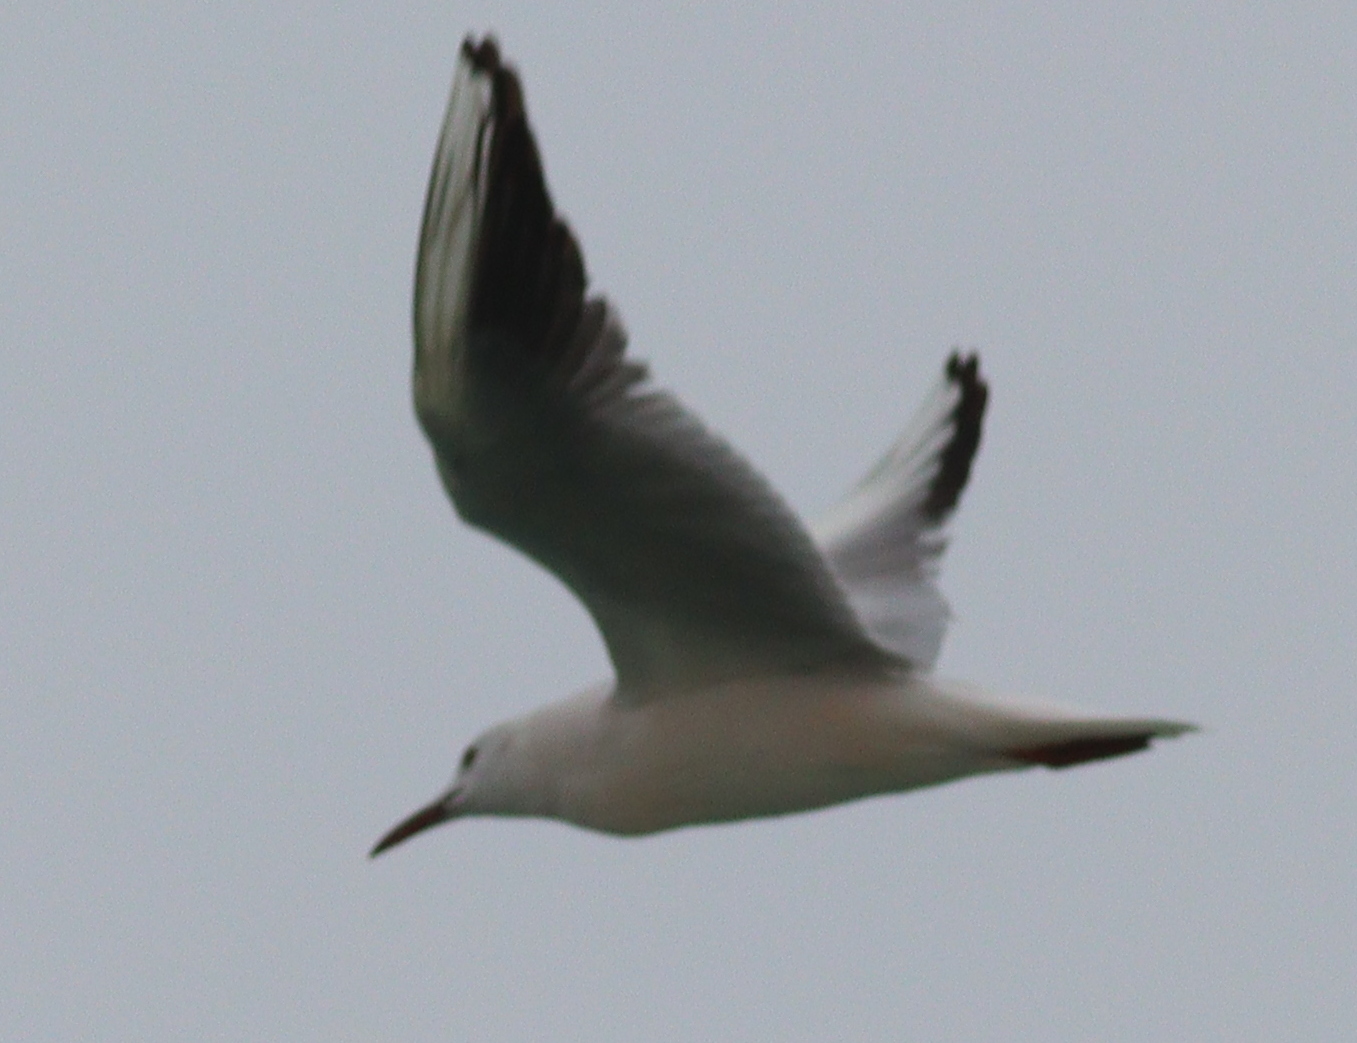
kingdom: Animalia
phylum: Chordata
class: Aves
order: Charadriiformes
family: Laridae
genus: Chroicocephalus
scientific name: Chroicocephalus genei
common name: Slender-billed gull
